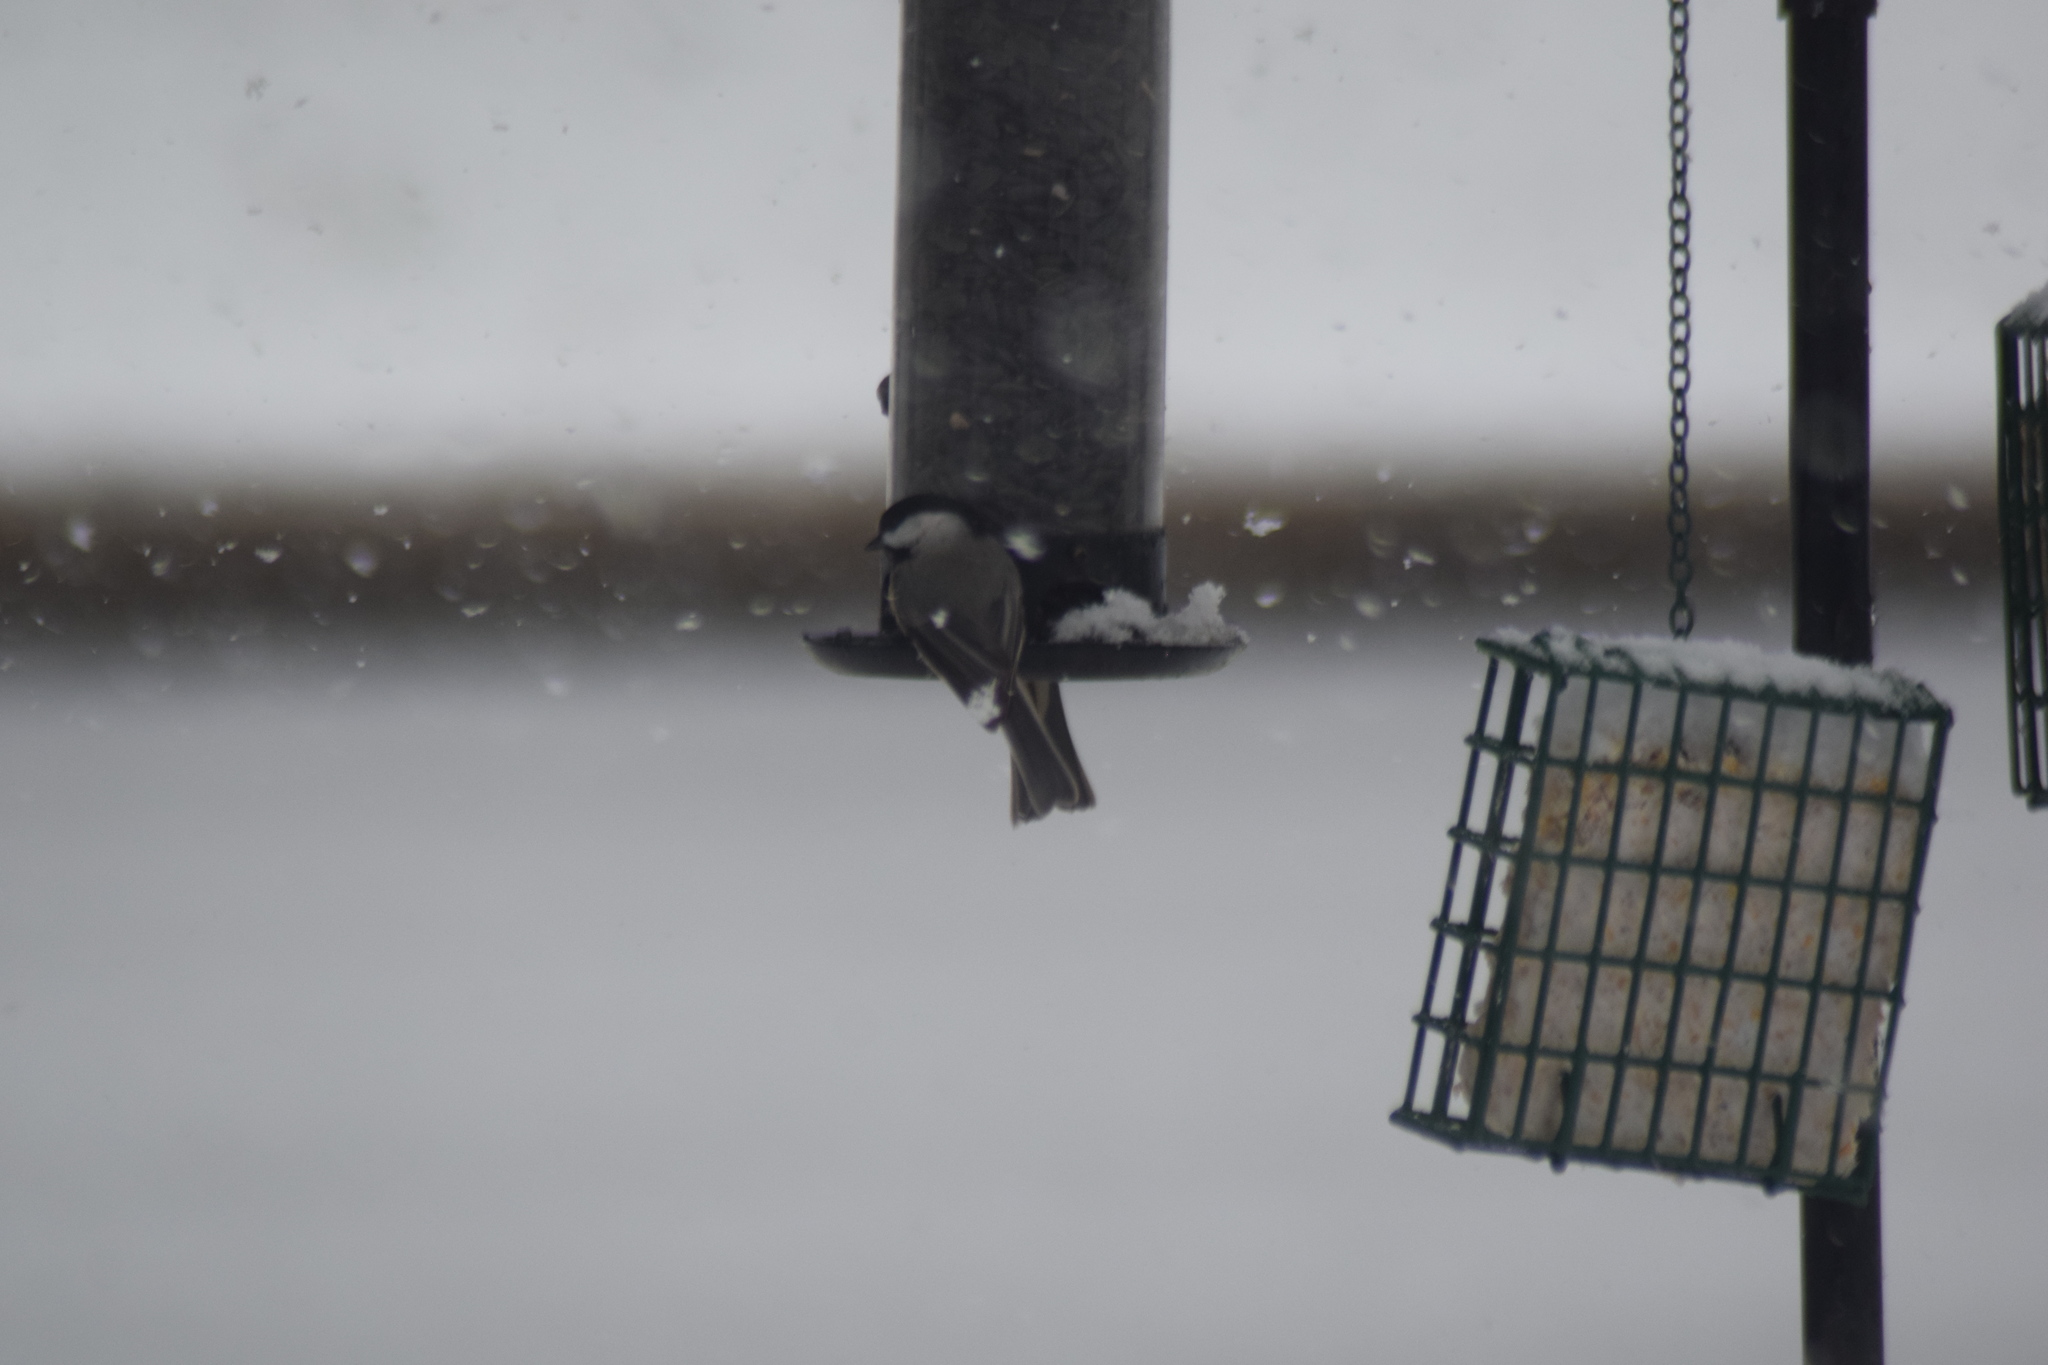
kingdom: Animalia
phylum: Chordata
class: Aves
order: Passeriformes
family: Paridae
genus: Poecile
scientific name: Poecile carolinensis
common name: Carolina chickadee
